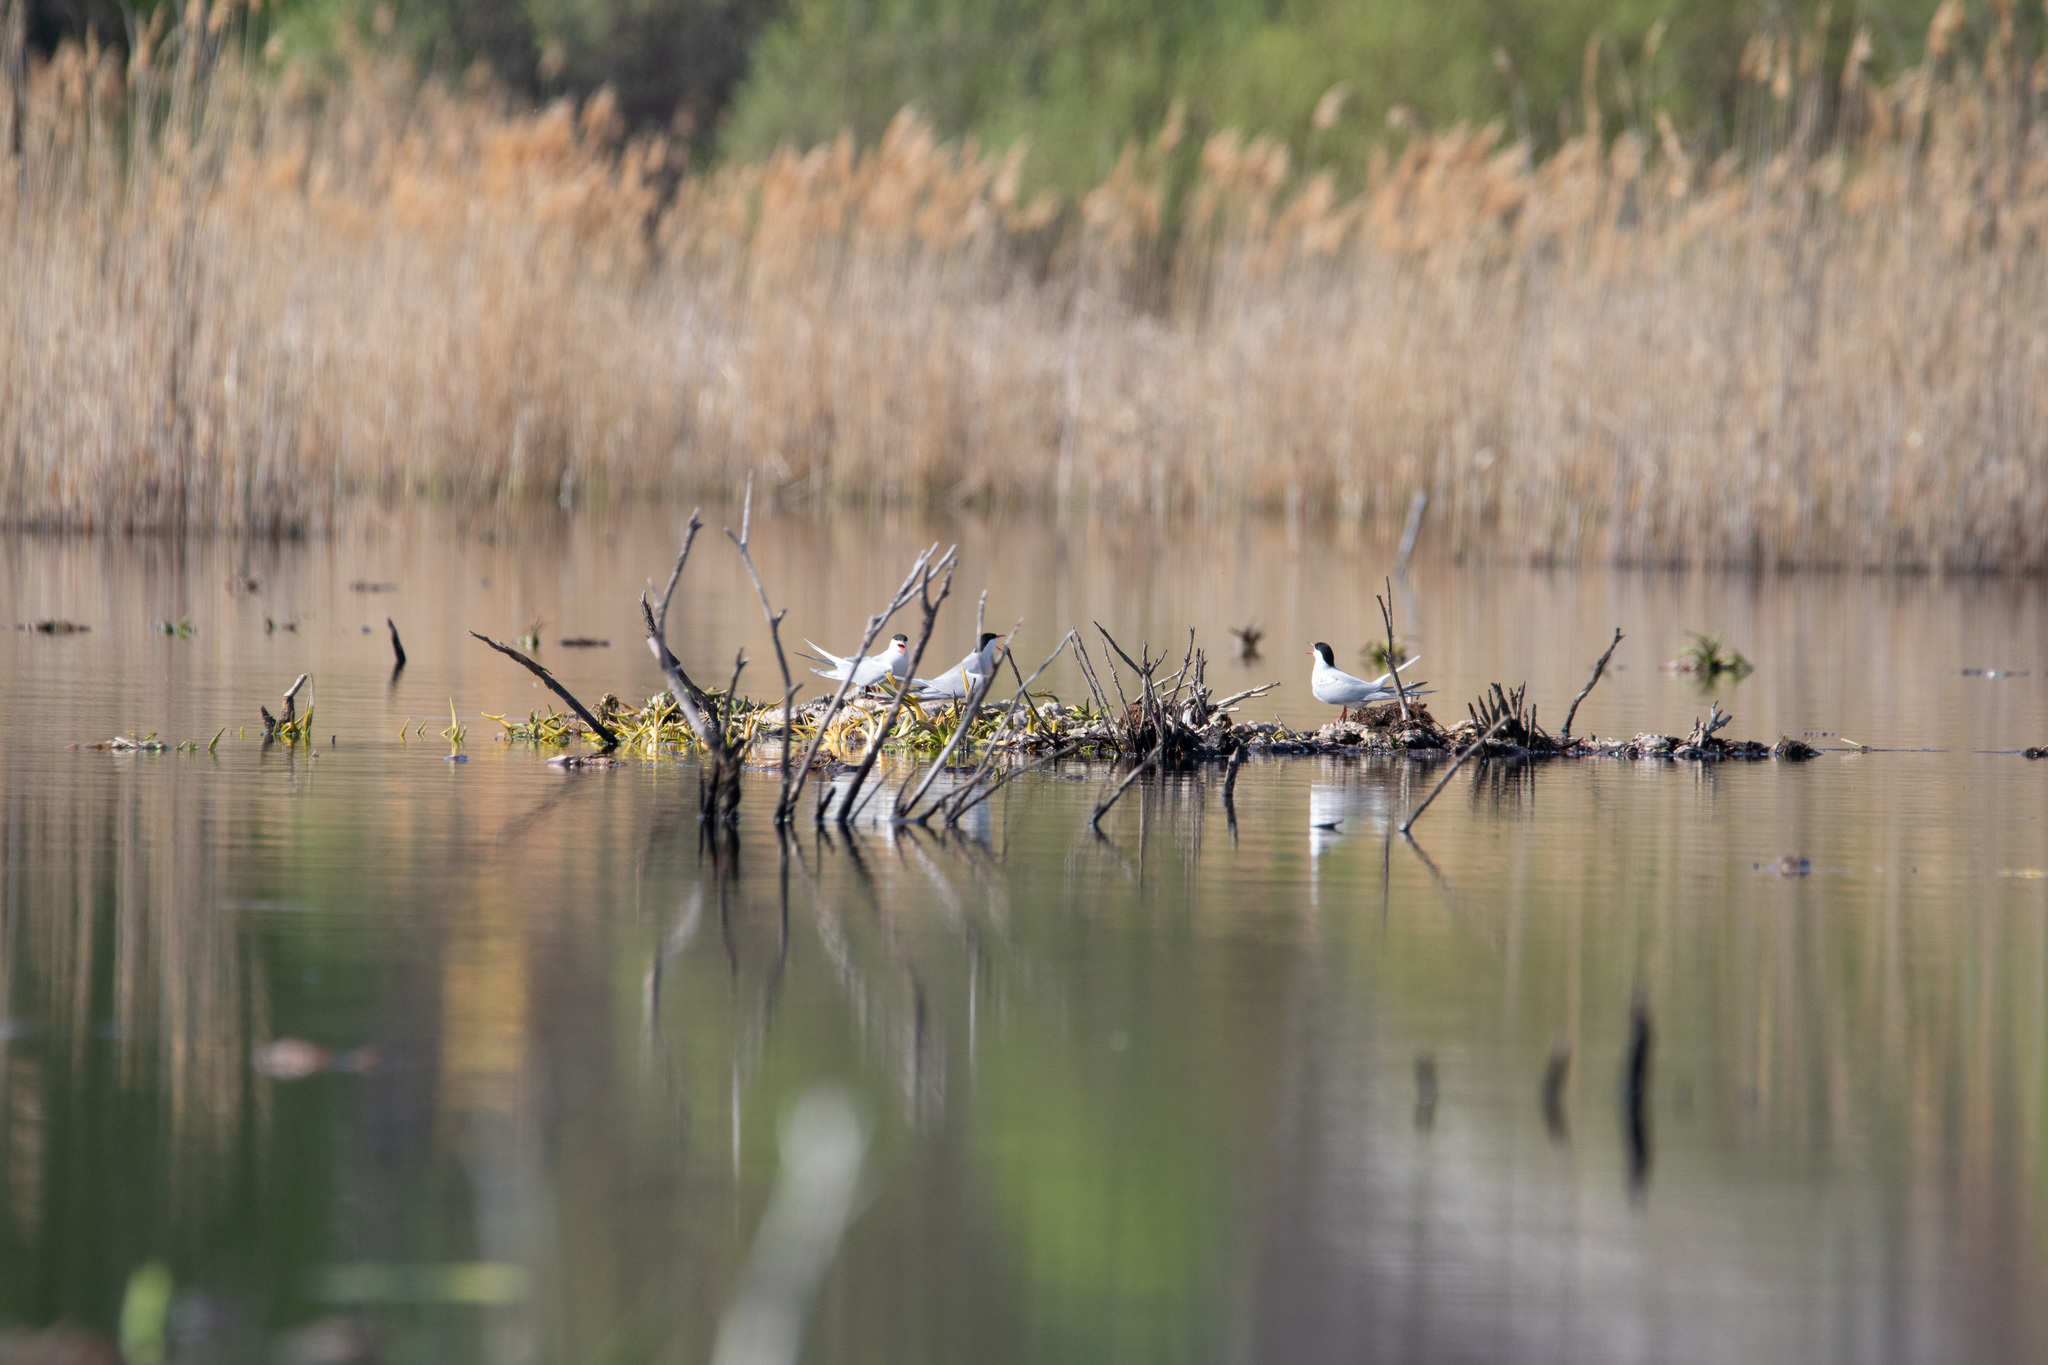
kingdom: Animalia
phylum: Chordata
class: Aves
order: Charadriiformes
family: Laridae
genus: Sterna
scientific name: Sterna hirundo
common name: Common tern
